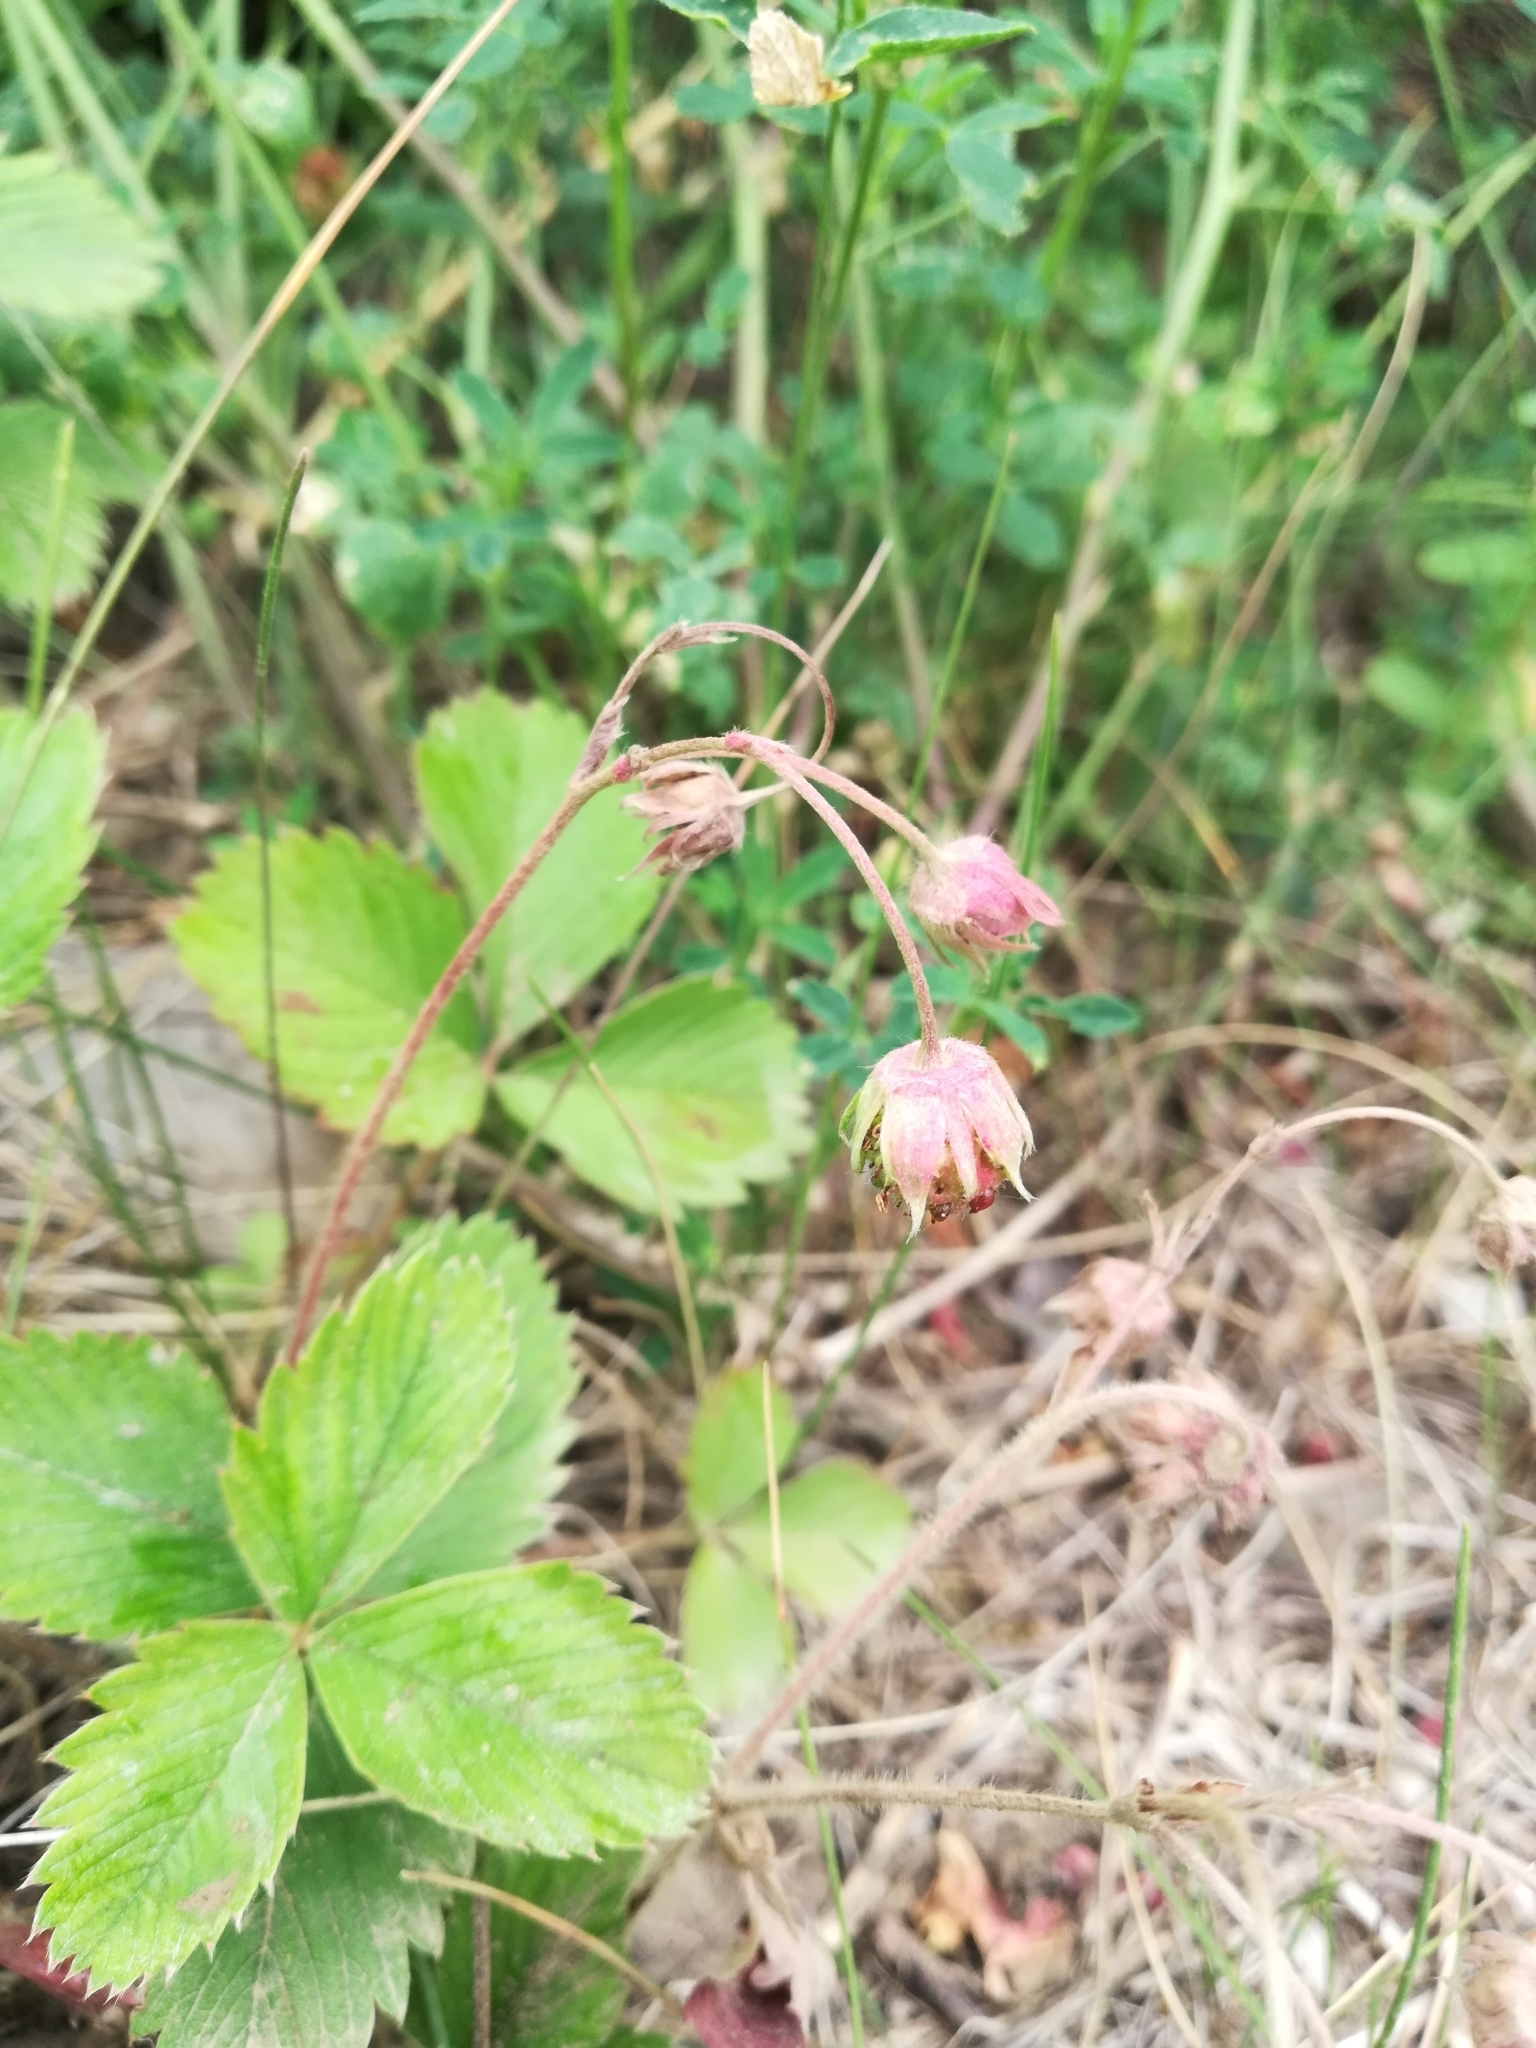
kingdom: Plantae
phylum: Tracheophyta
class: Magnoliopsida
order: Rosales
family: Rosaceae
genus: Fragaria
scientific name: Fragaria viridis
